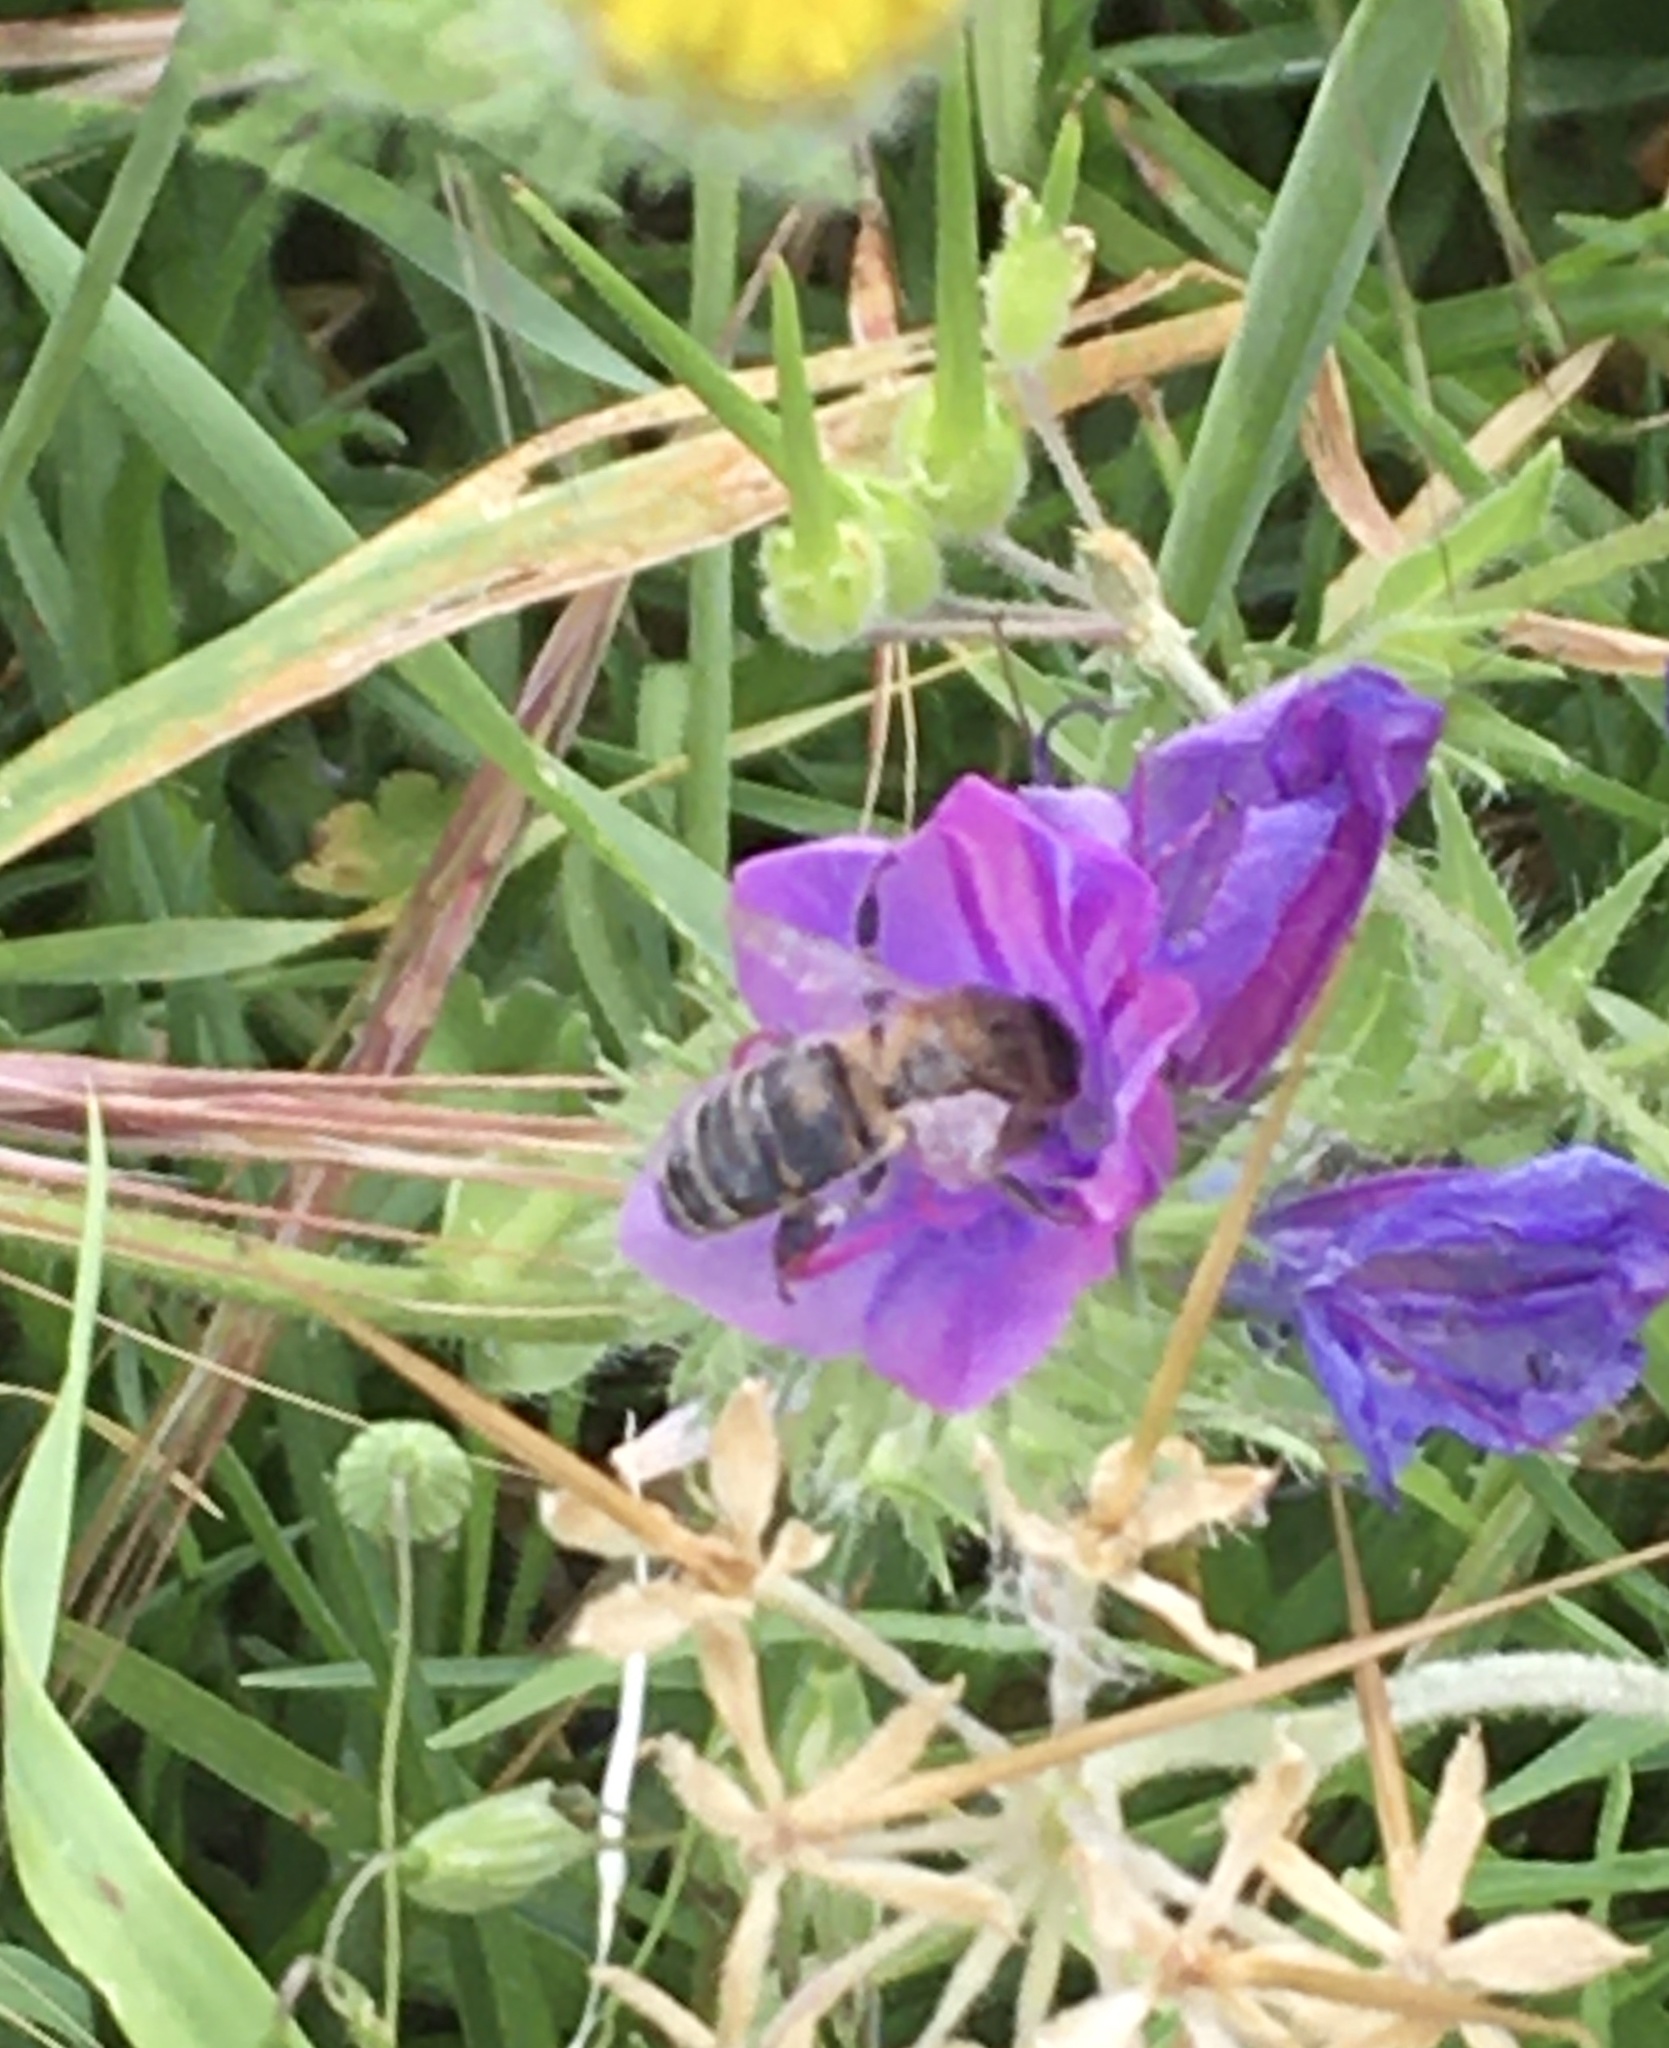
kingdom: Animalia
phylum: Arthropoda
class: Insecta
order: Hymenoptera
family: Apidae
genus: Apis
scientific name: Apis mellifera
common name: Honey bee
